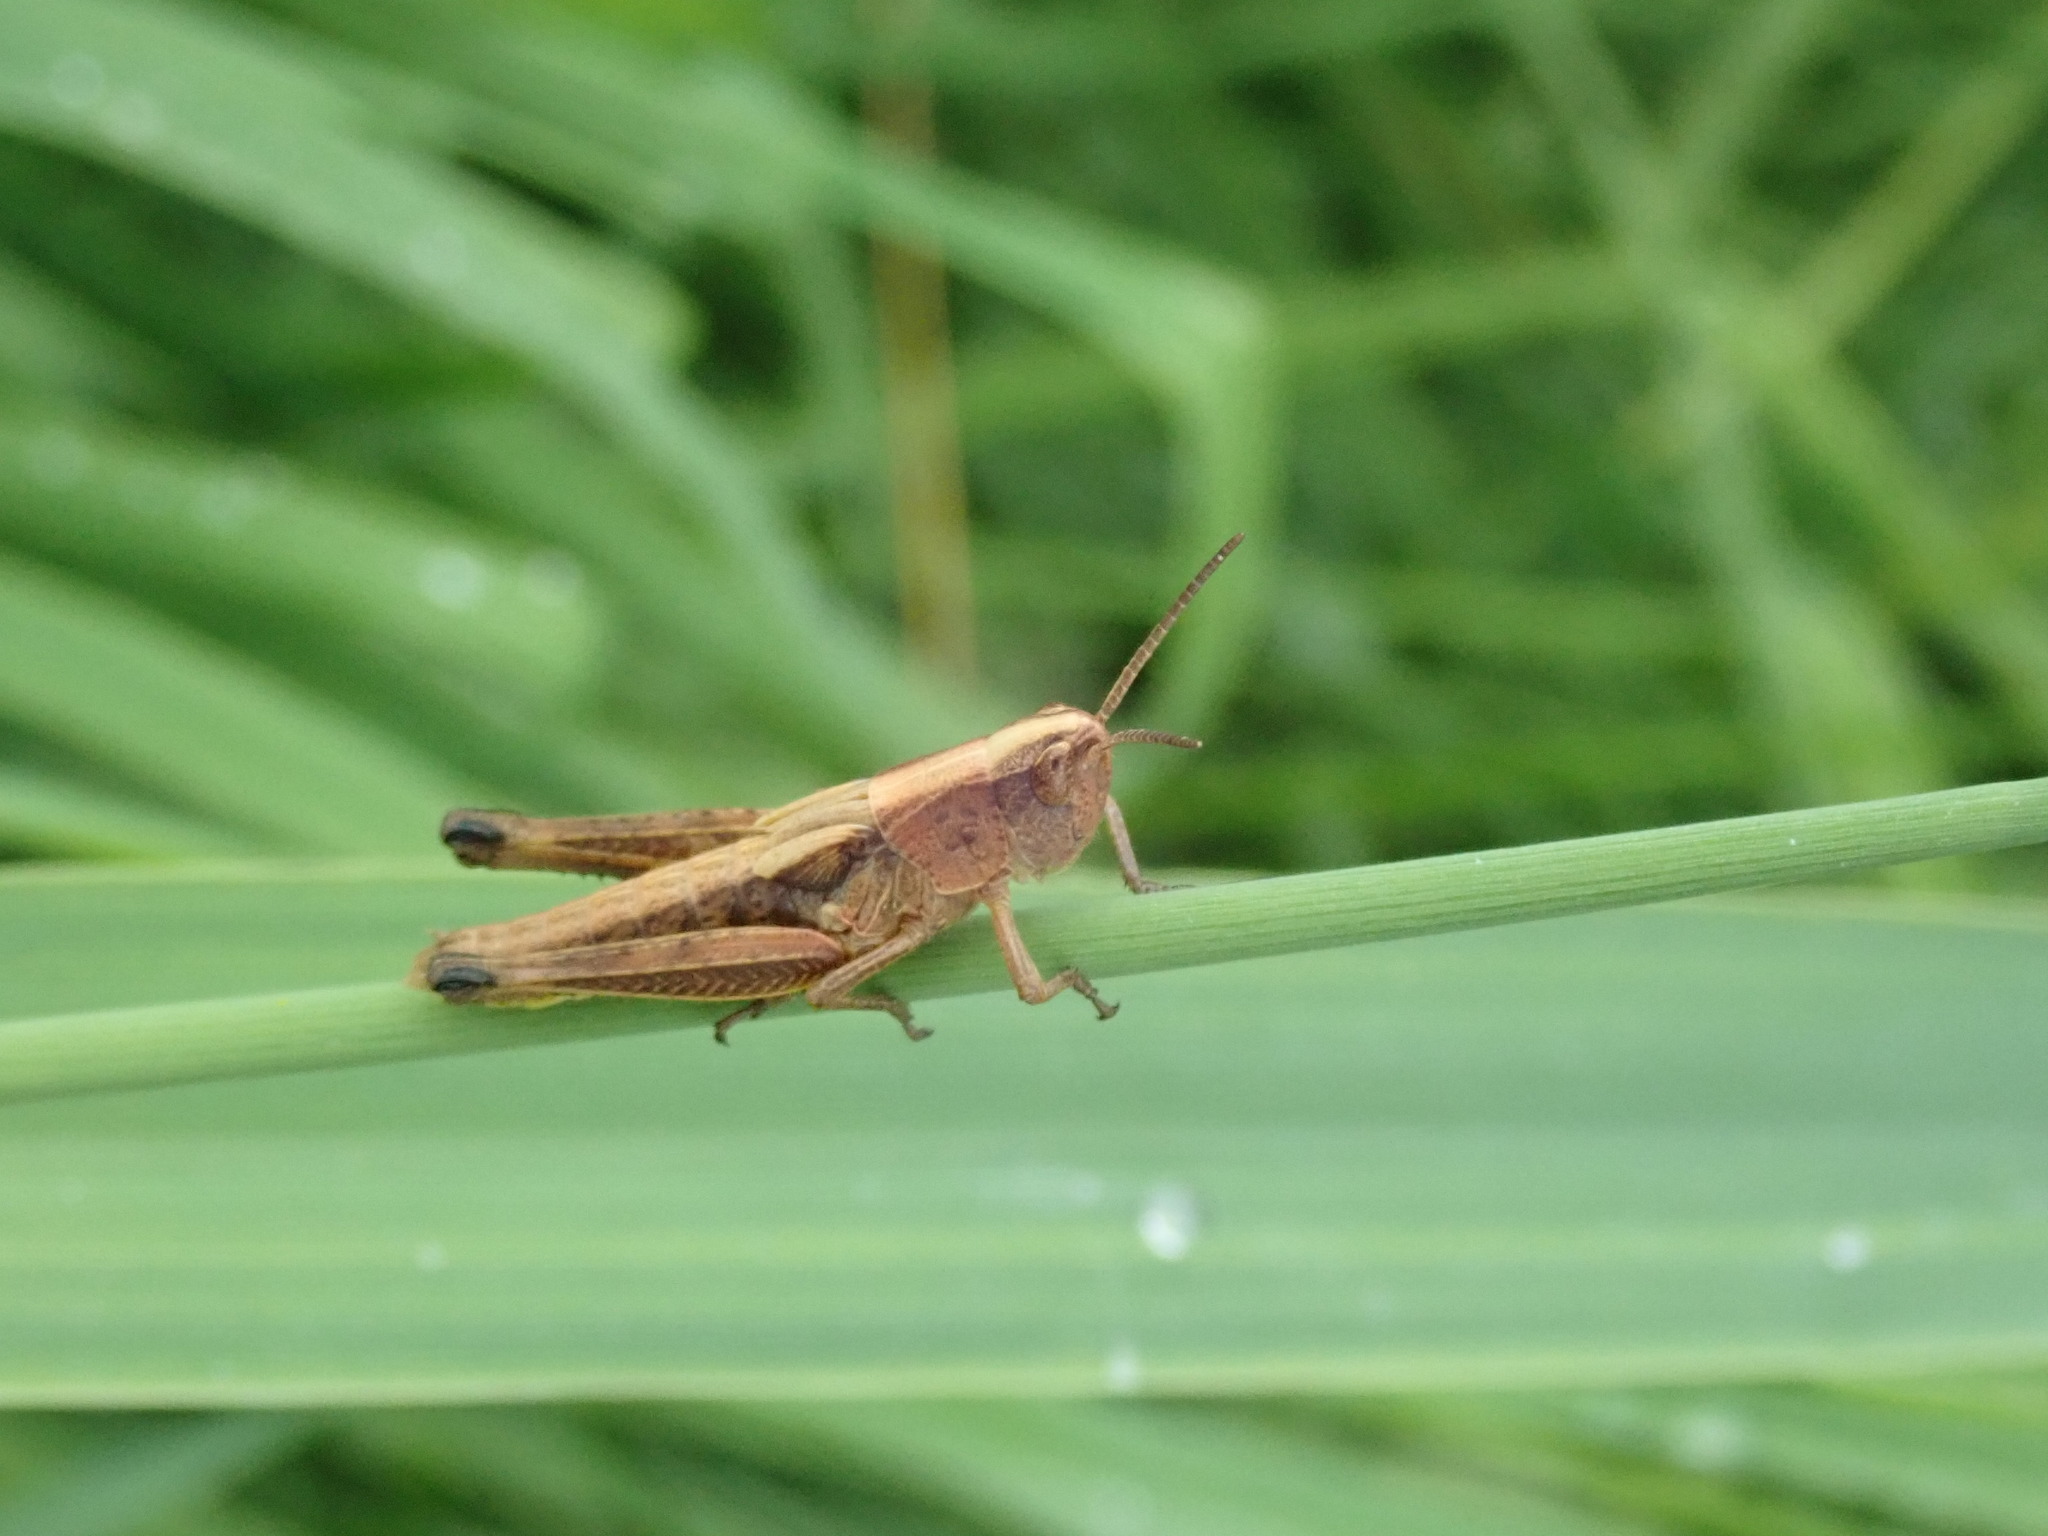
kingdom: Animalia
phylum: Arthropoda
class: Insecta
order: Orthoptera
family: Acrididae
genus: Pseudochorthippus
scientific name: Pseudochorthippus curtipennis
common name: Marsh meadow grasshopper
